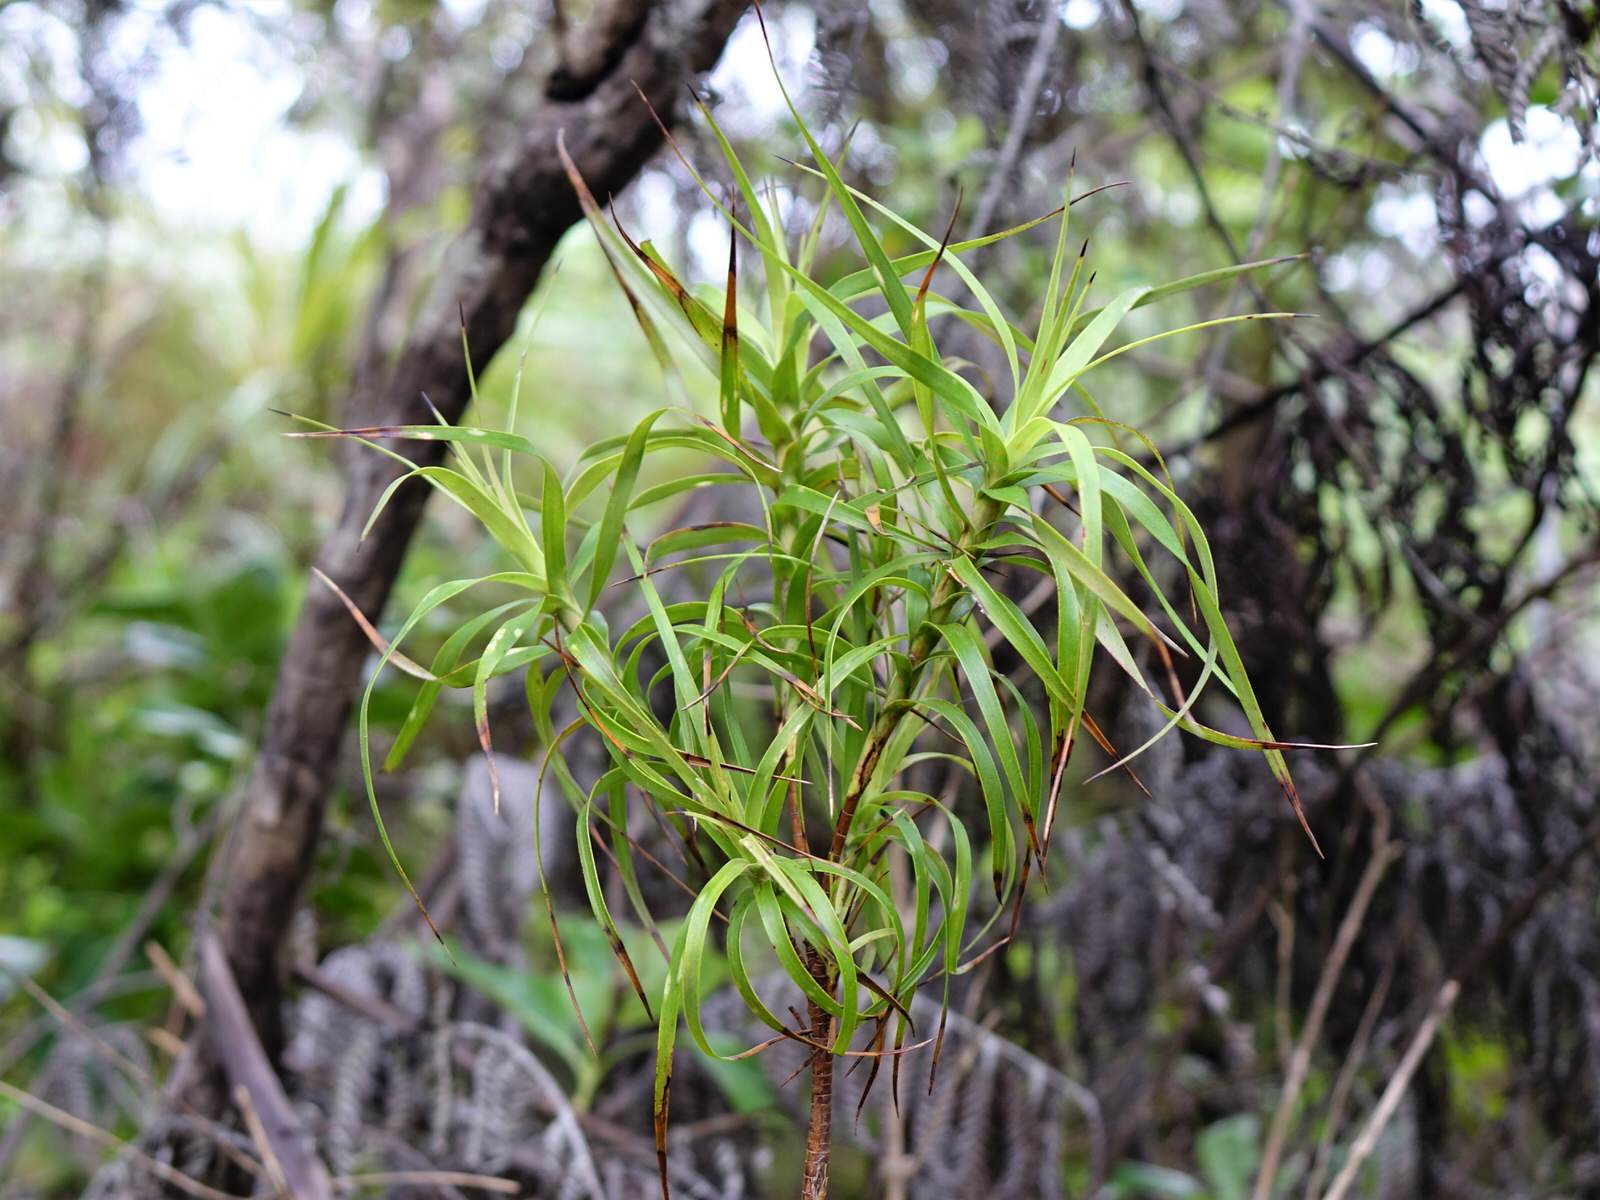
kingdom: Plantae
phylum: Tracheophyta
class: Magnoliopsida
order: Ericales
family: Ericaceae
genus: Dracophyllum
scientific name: Dracophyllum sinclairii
